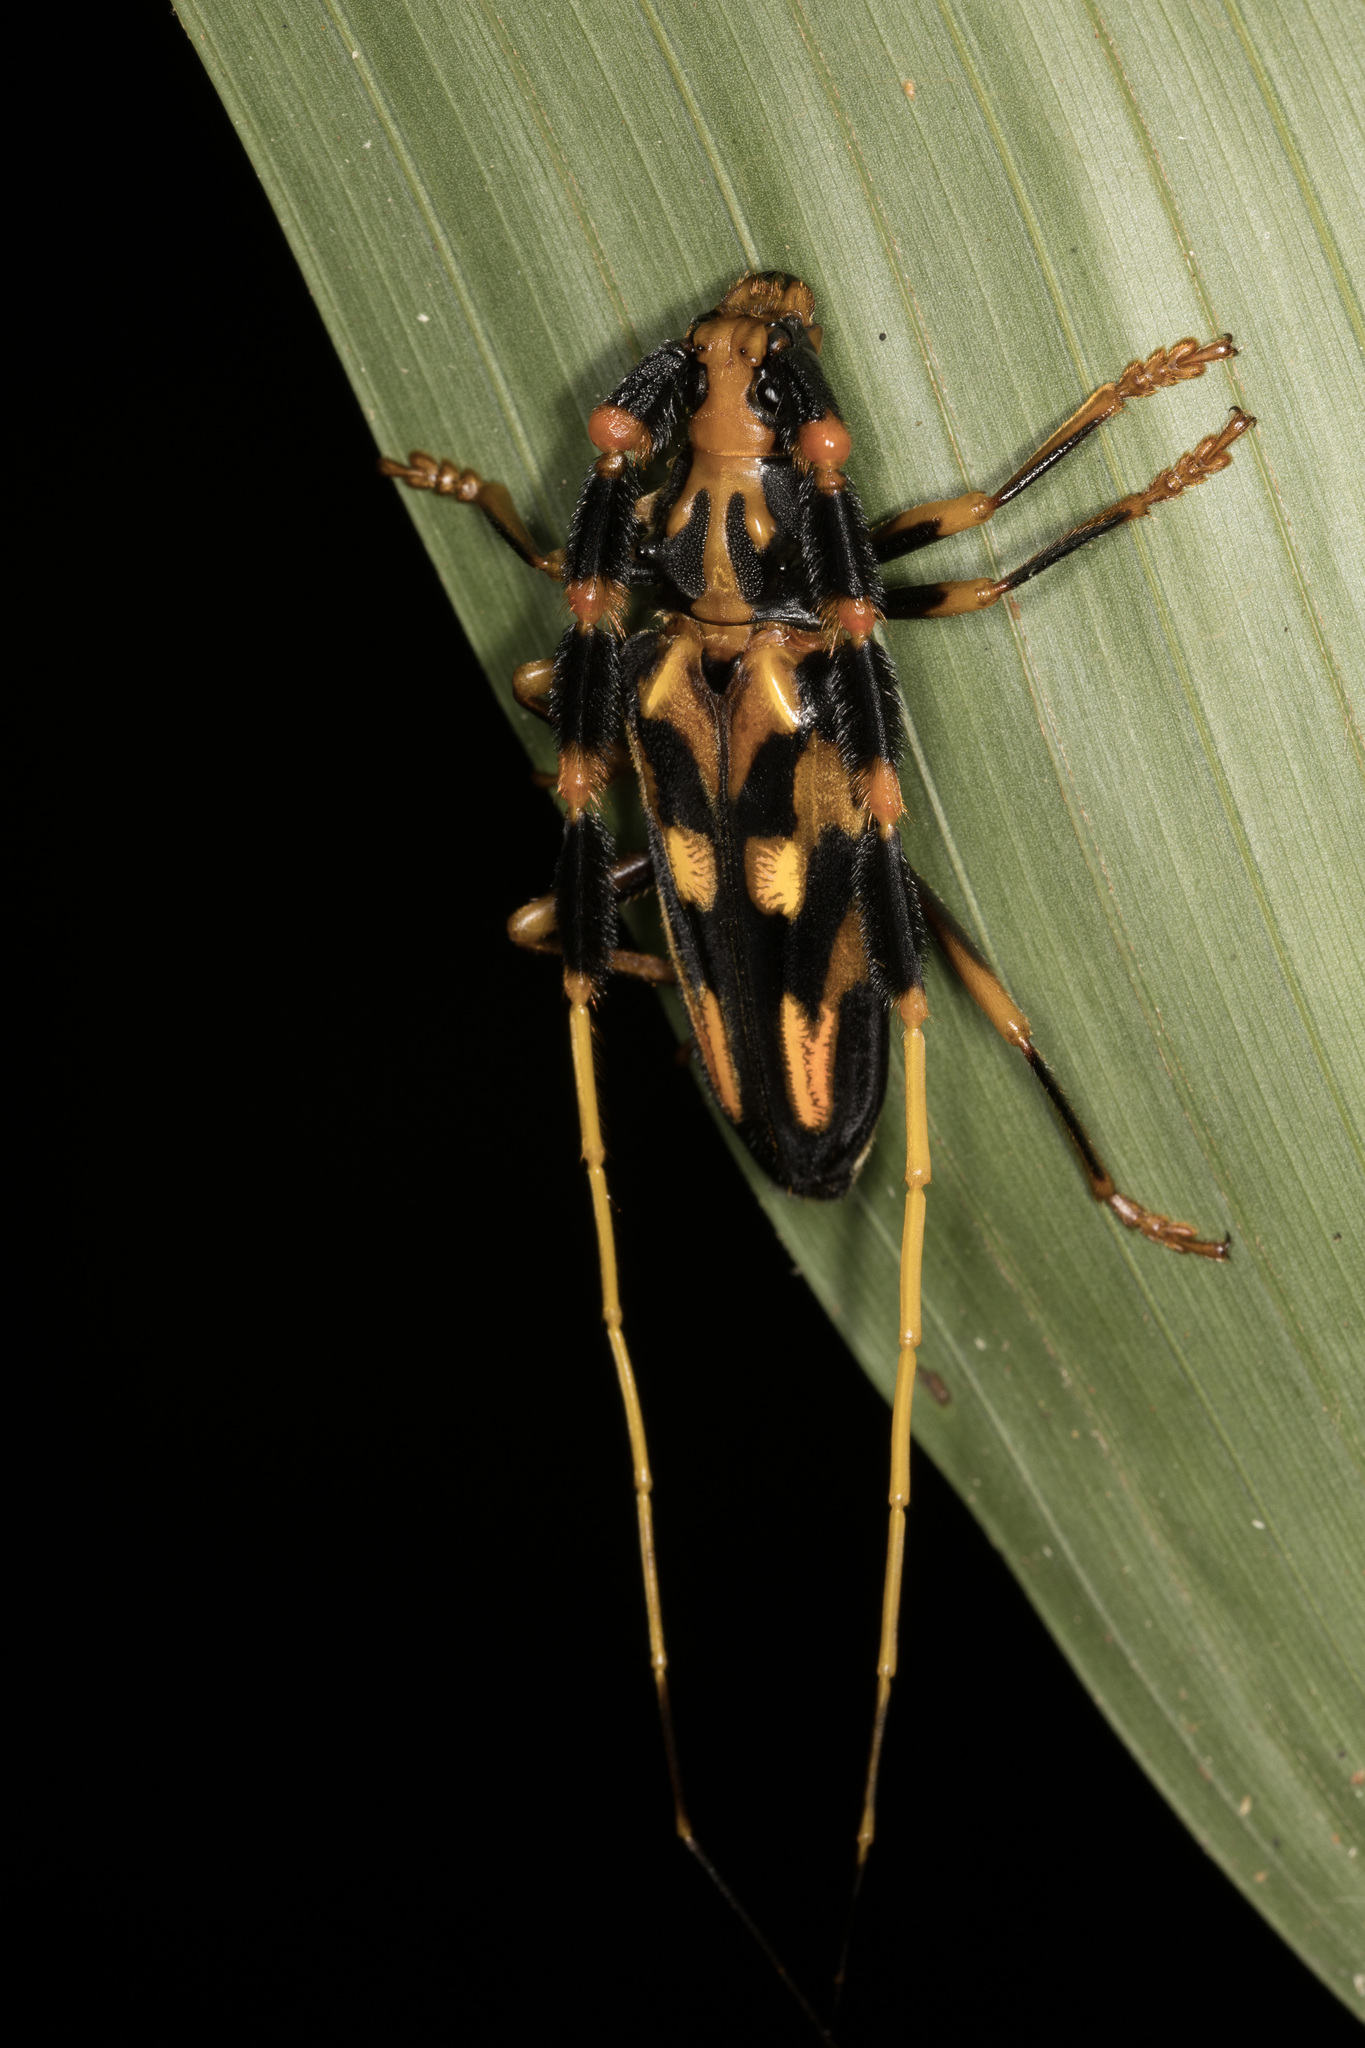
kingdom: Animalia
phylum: Arthropoda
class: Insecta
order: Coleoptera
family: Cerambycidae
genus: Batus
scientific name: Batus barbicornis
